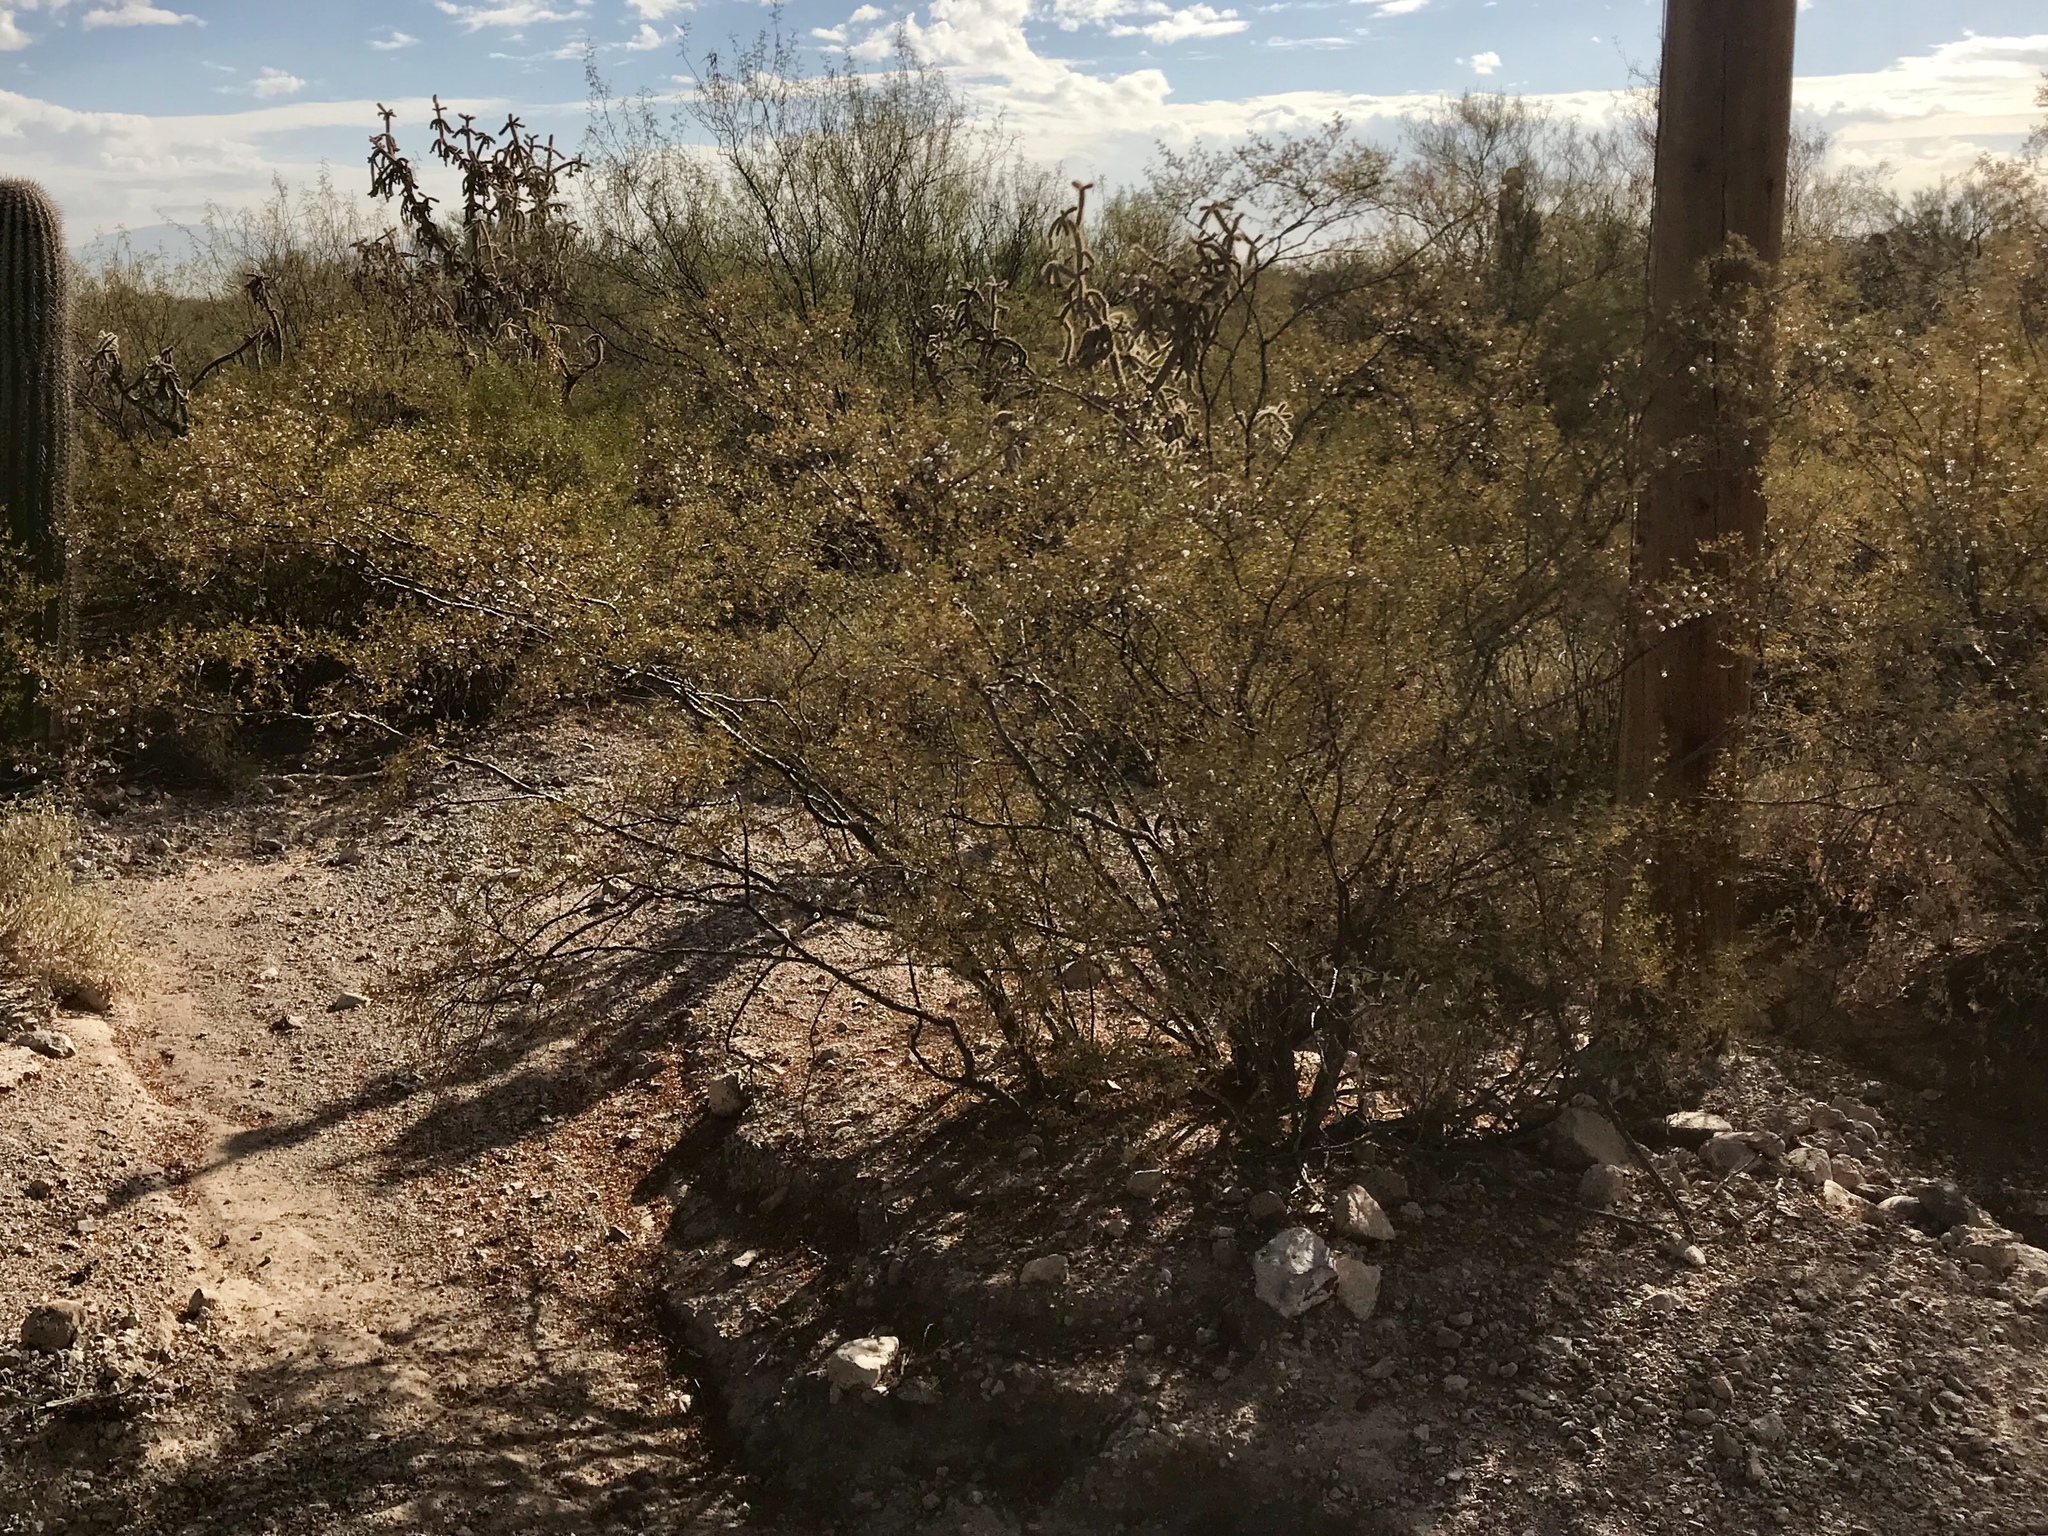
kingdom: Plantae
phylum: Tracheophyta
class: Magnoliopsida
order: Zygophyllales
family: Zygophyllaceae
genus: Larrea
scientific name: Larrea tridentata
